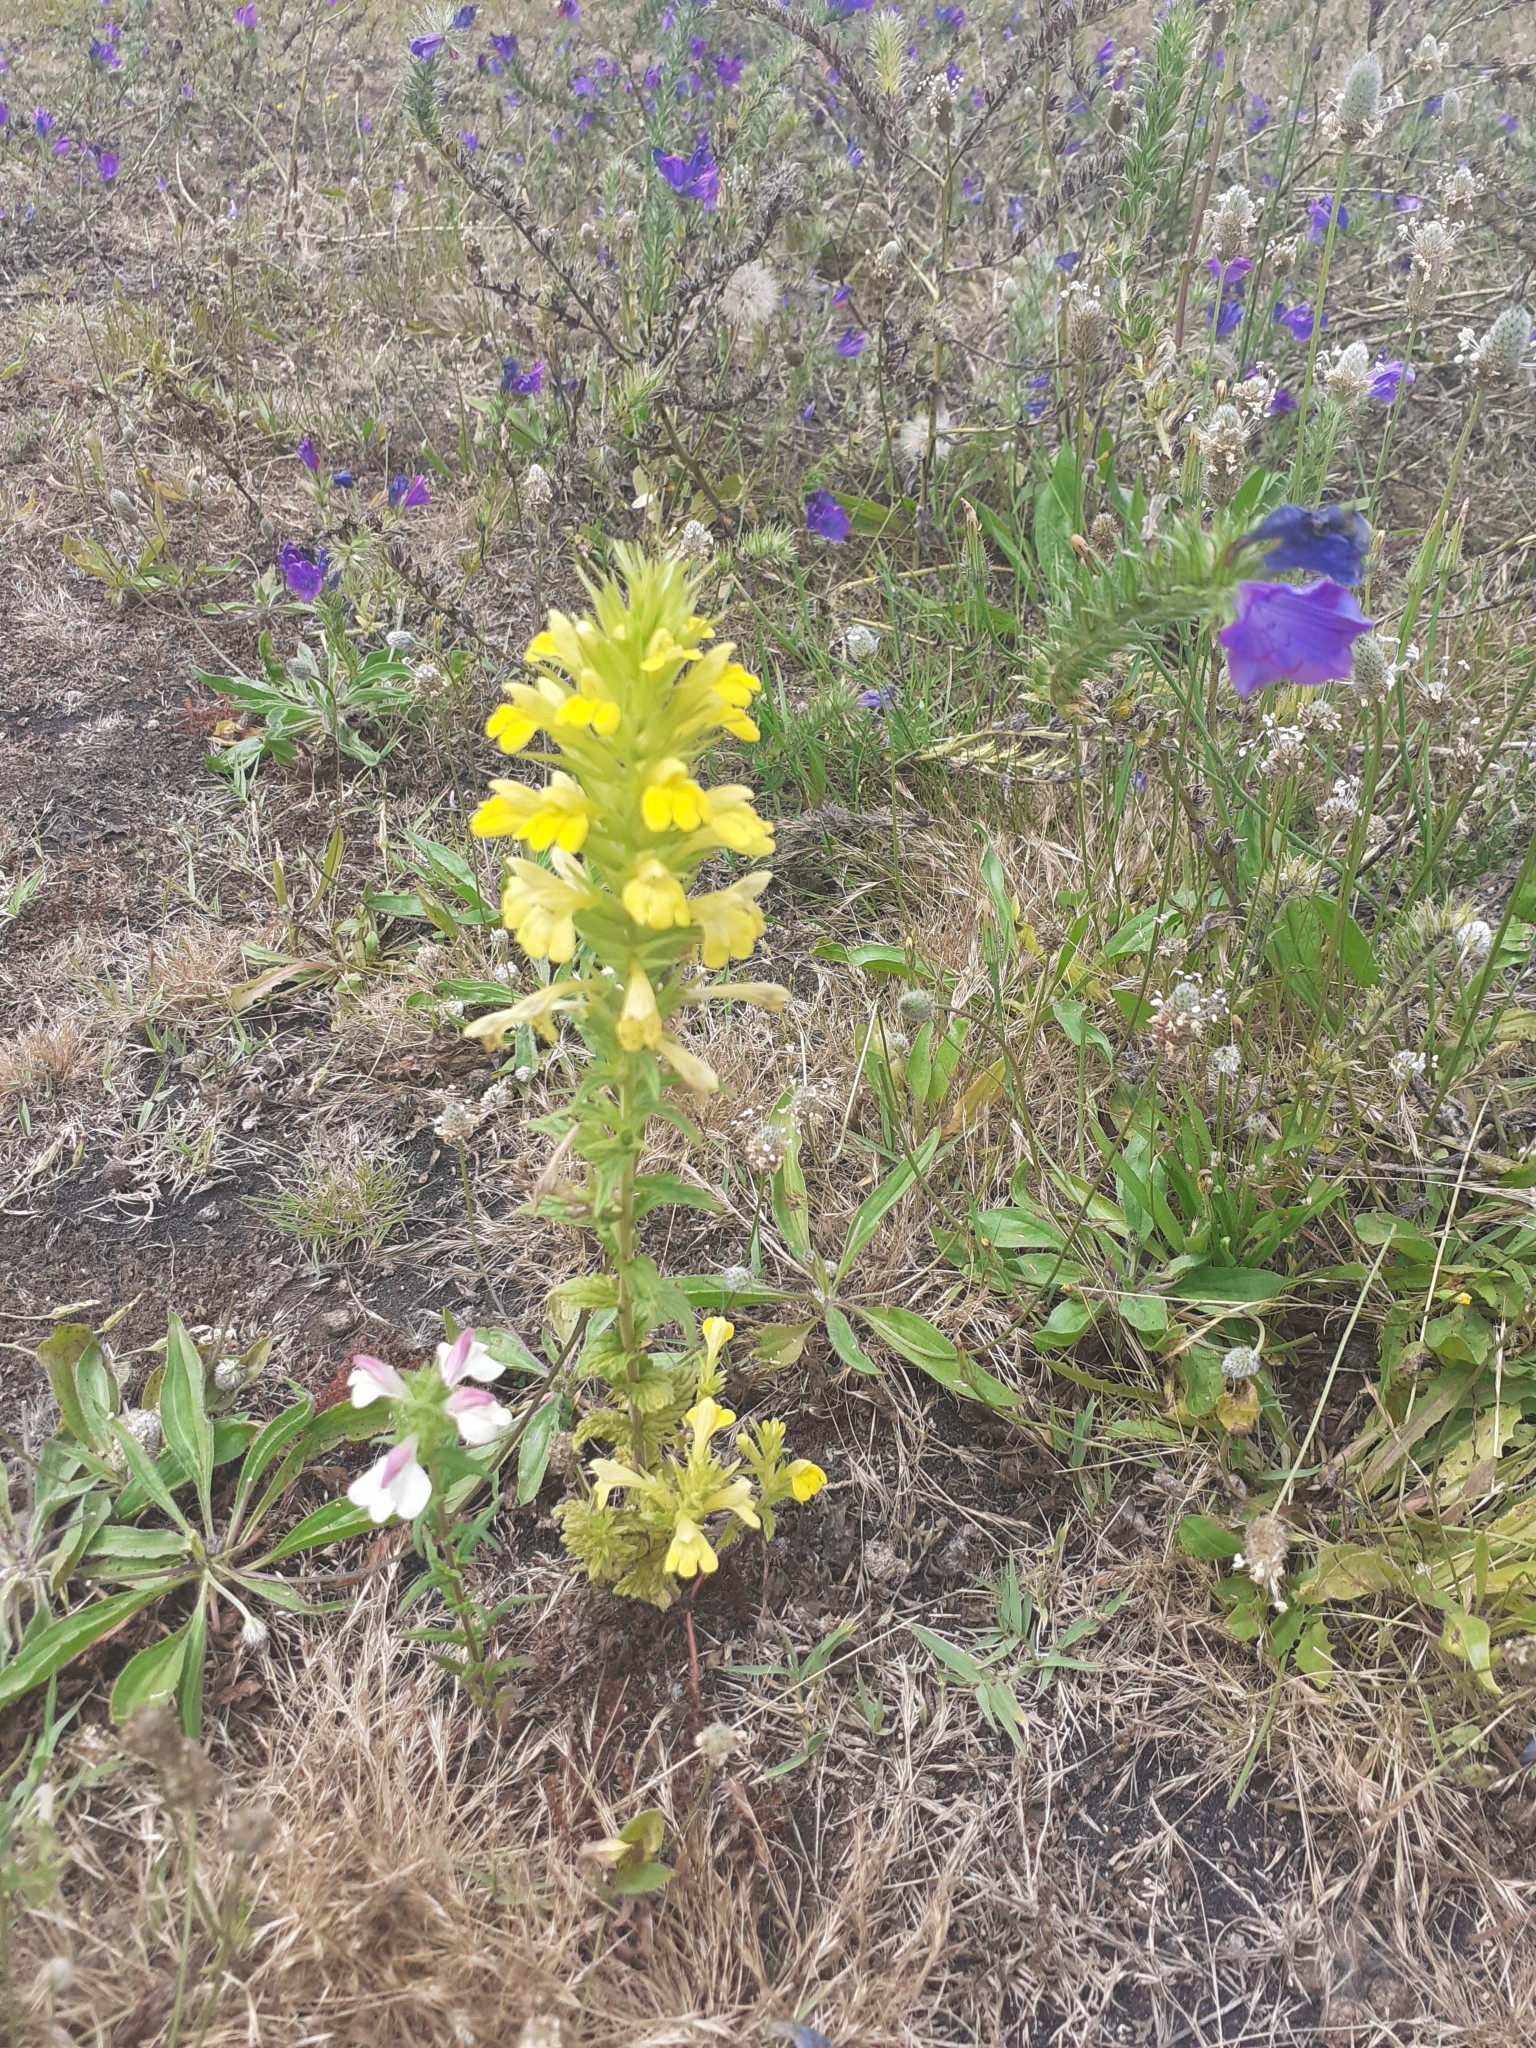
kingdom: Plantae
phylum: Tracheophyta
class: Magnoliopsida
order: Lamiales
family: Orobanchaceae
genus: Bellardia
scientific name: Bellardia viscosa
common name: Sticky parentucellia
